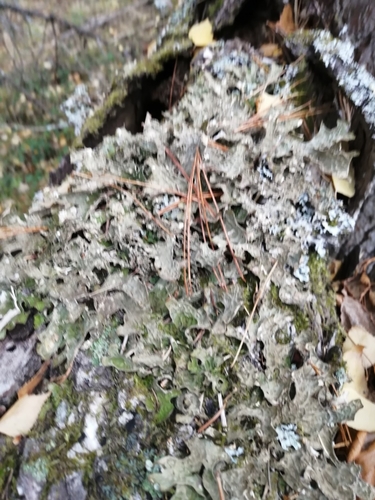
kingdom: Fungi
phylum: Ascomycota
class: Lecanoromycetes
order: Peltigerales
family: Lobariaceae
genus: Lobaria
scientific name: Lobaria pulmonaria
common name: Lungwort
